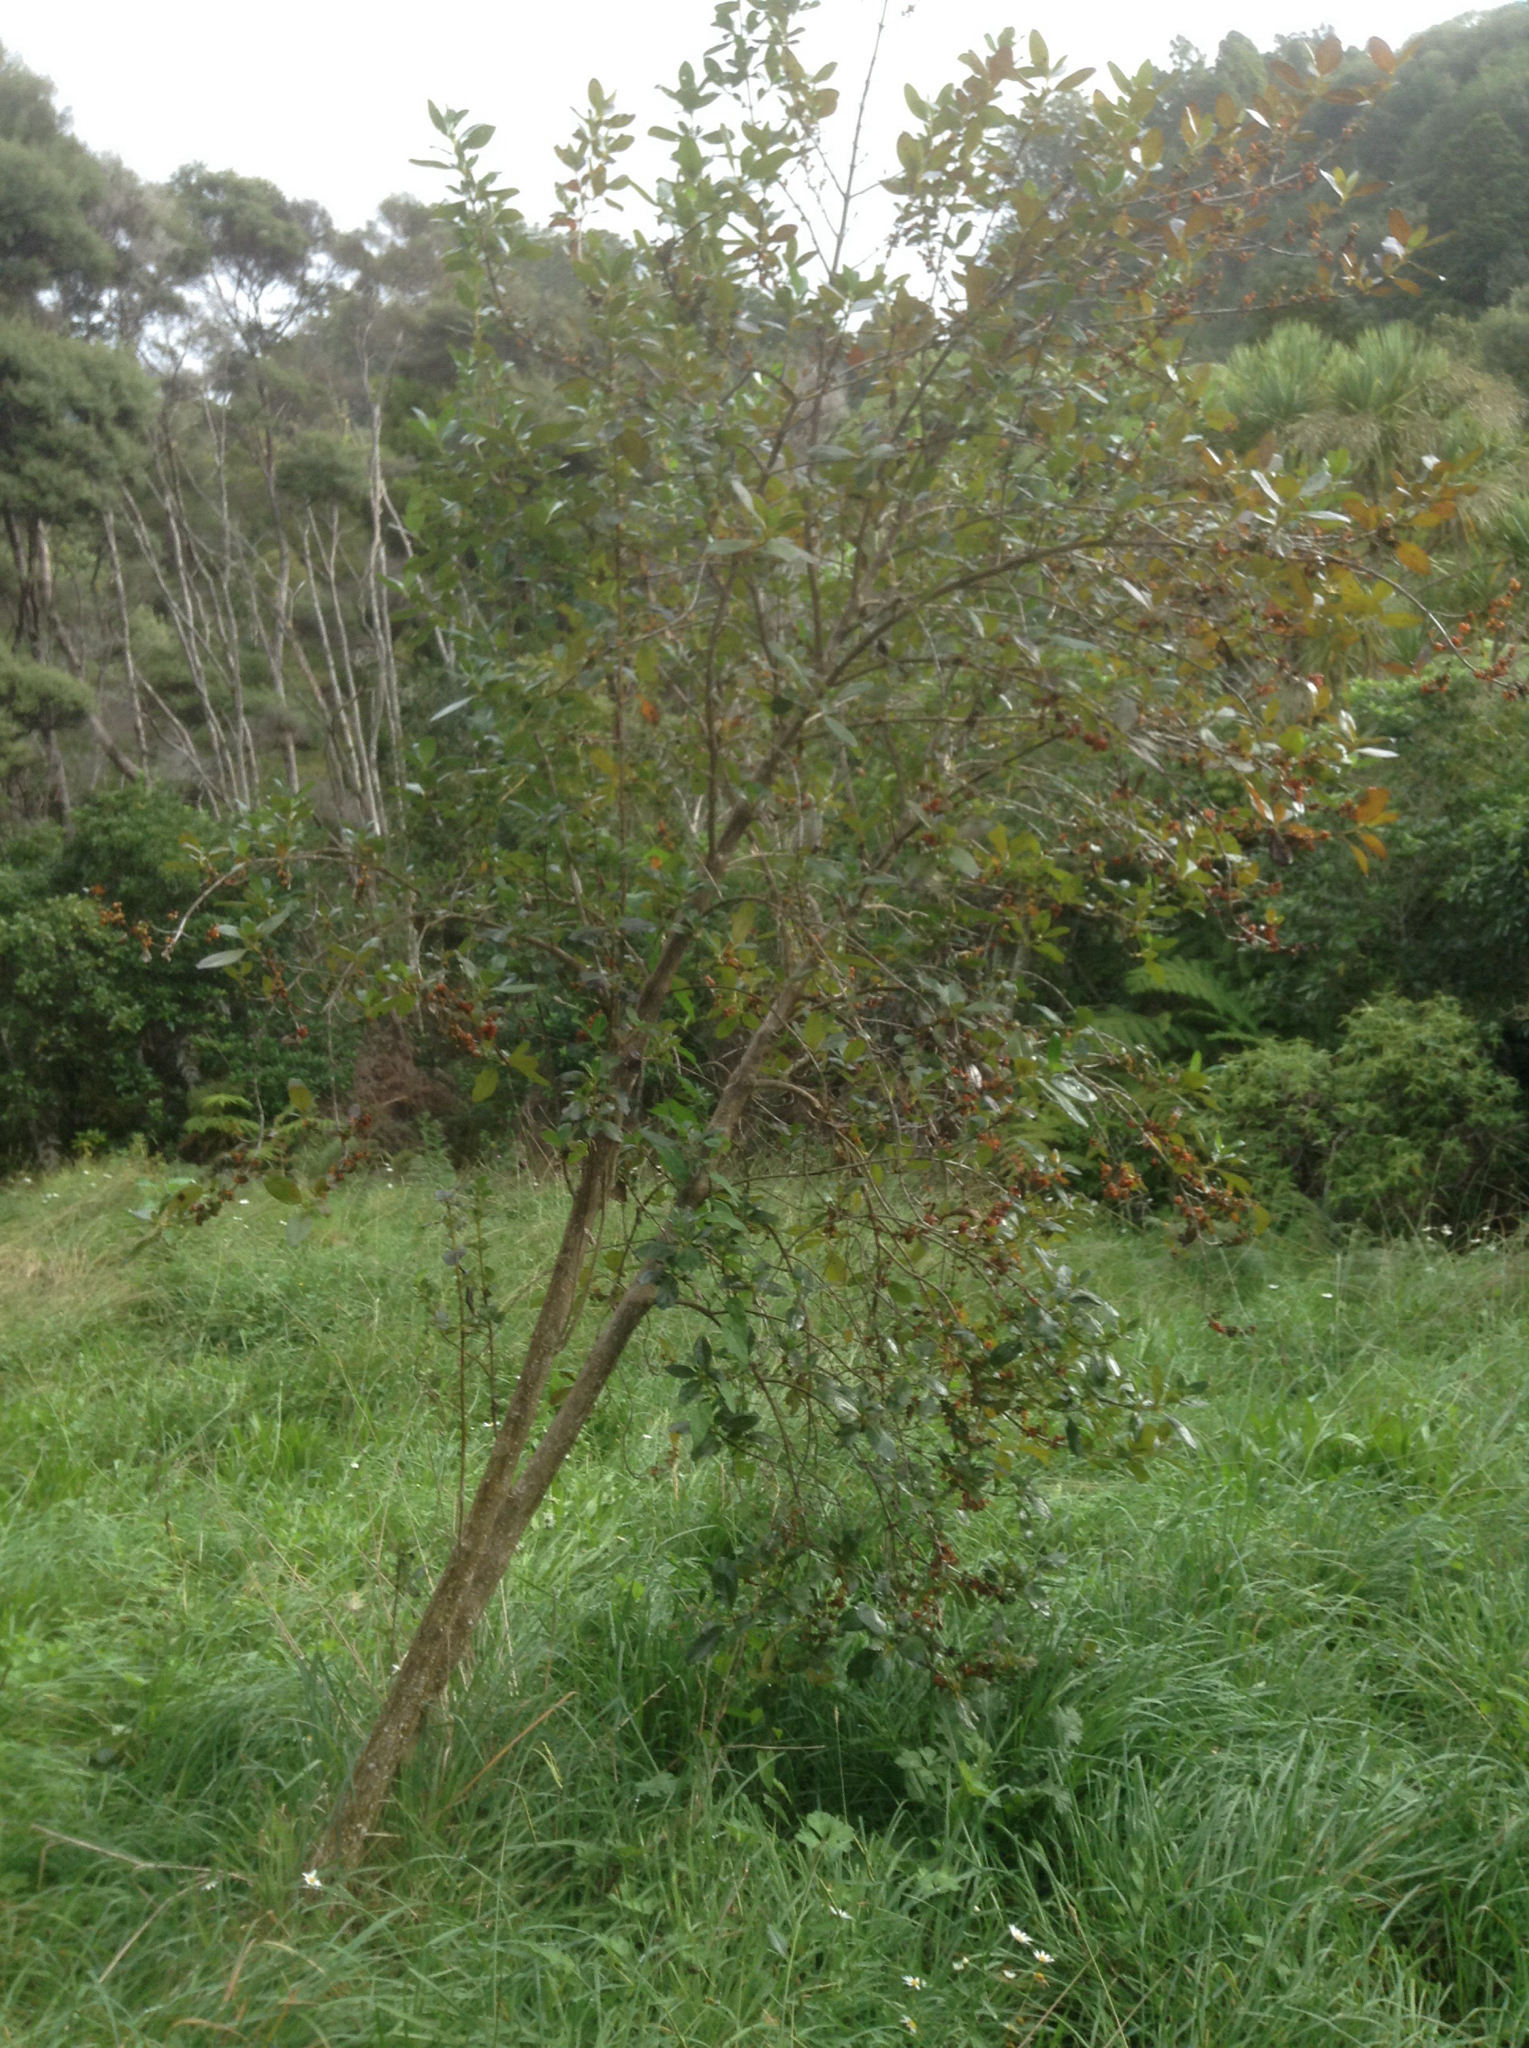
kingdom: Plantae
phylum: Tracheophyta
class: Magnoliopsida
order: Gentianales
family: Rubiaceae
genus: Coprosma
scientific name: Coprosma robusta
